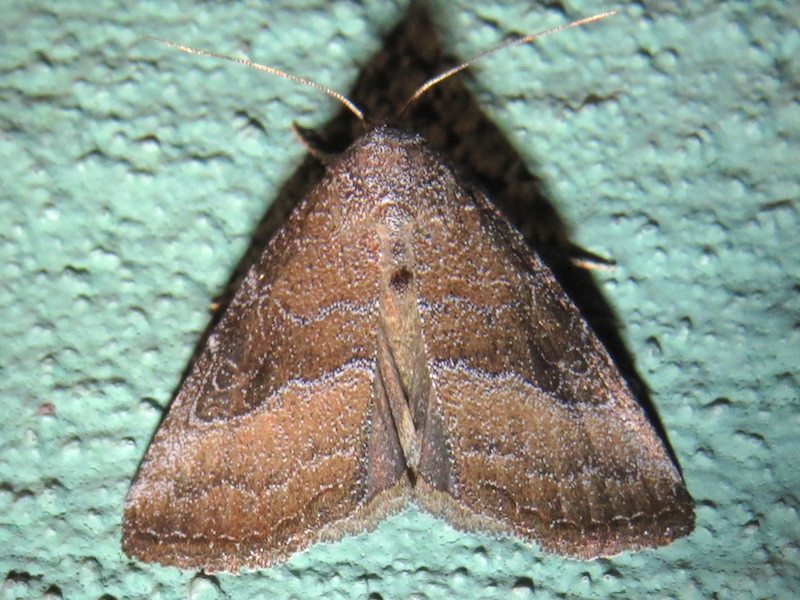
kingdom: Animalia
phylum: Arthropoda
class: Insecta
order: Lepidoptera
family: Noctuidae
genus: Ogdoconta
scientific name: Ogdoconta cinereola
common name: Common pinkband
